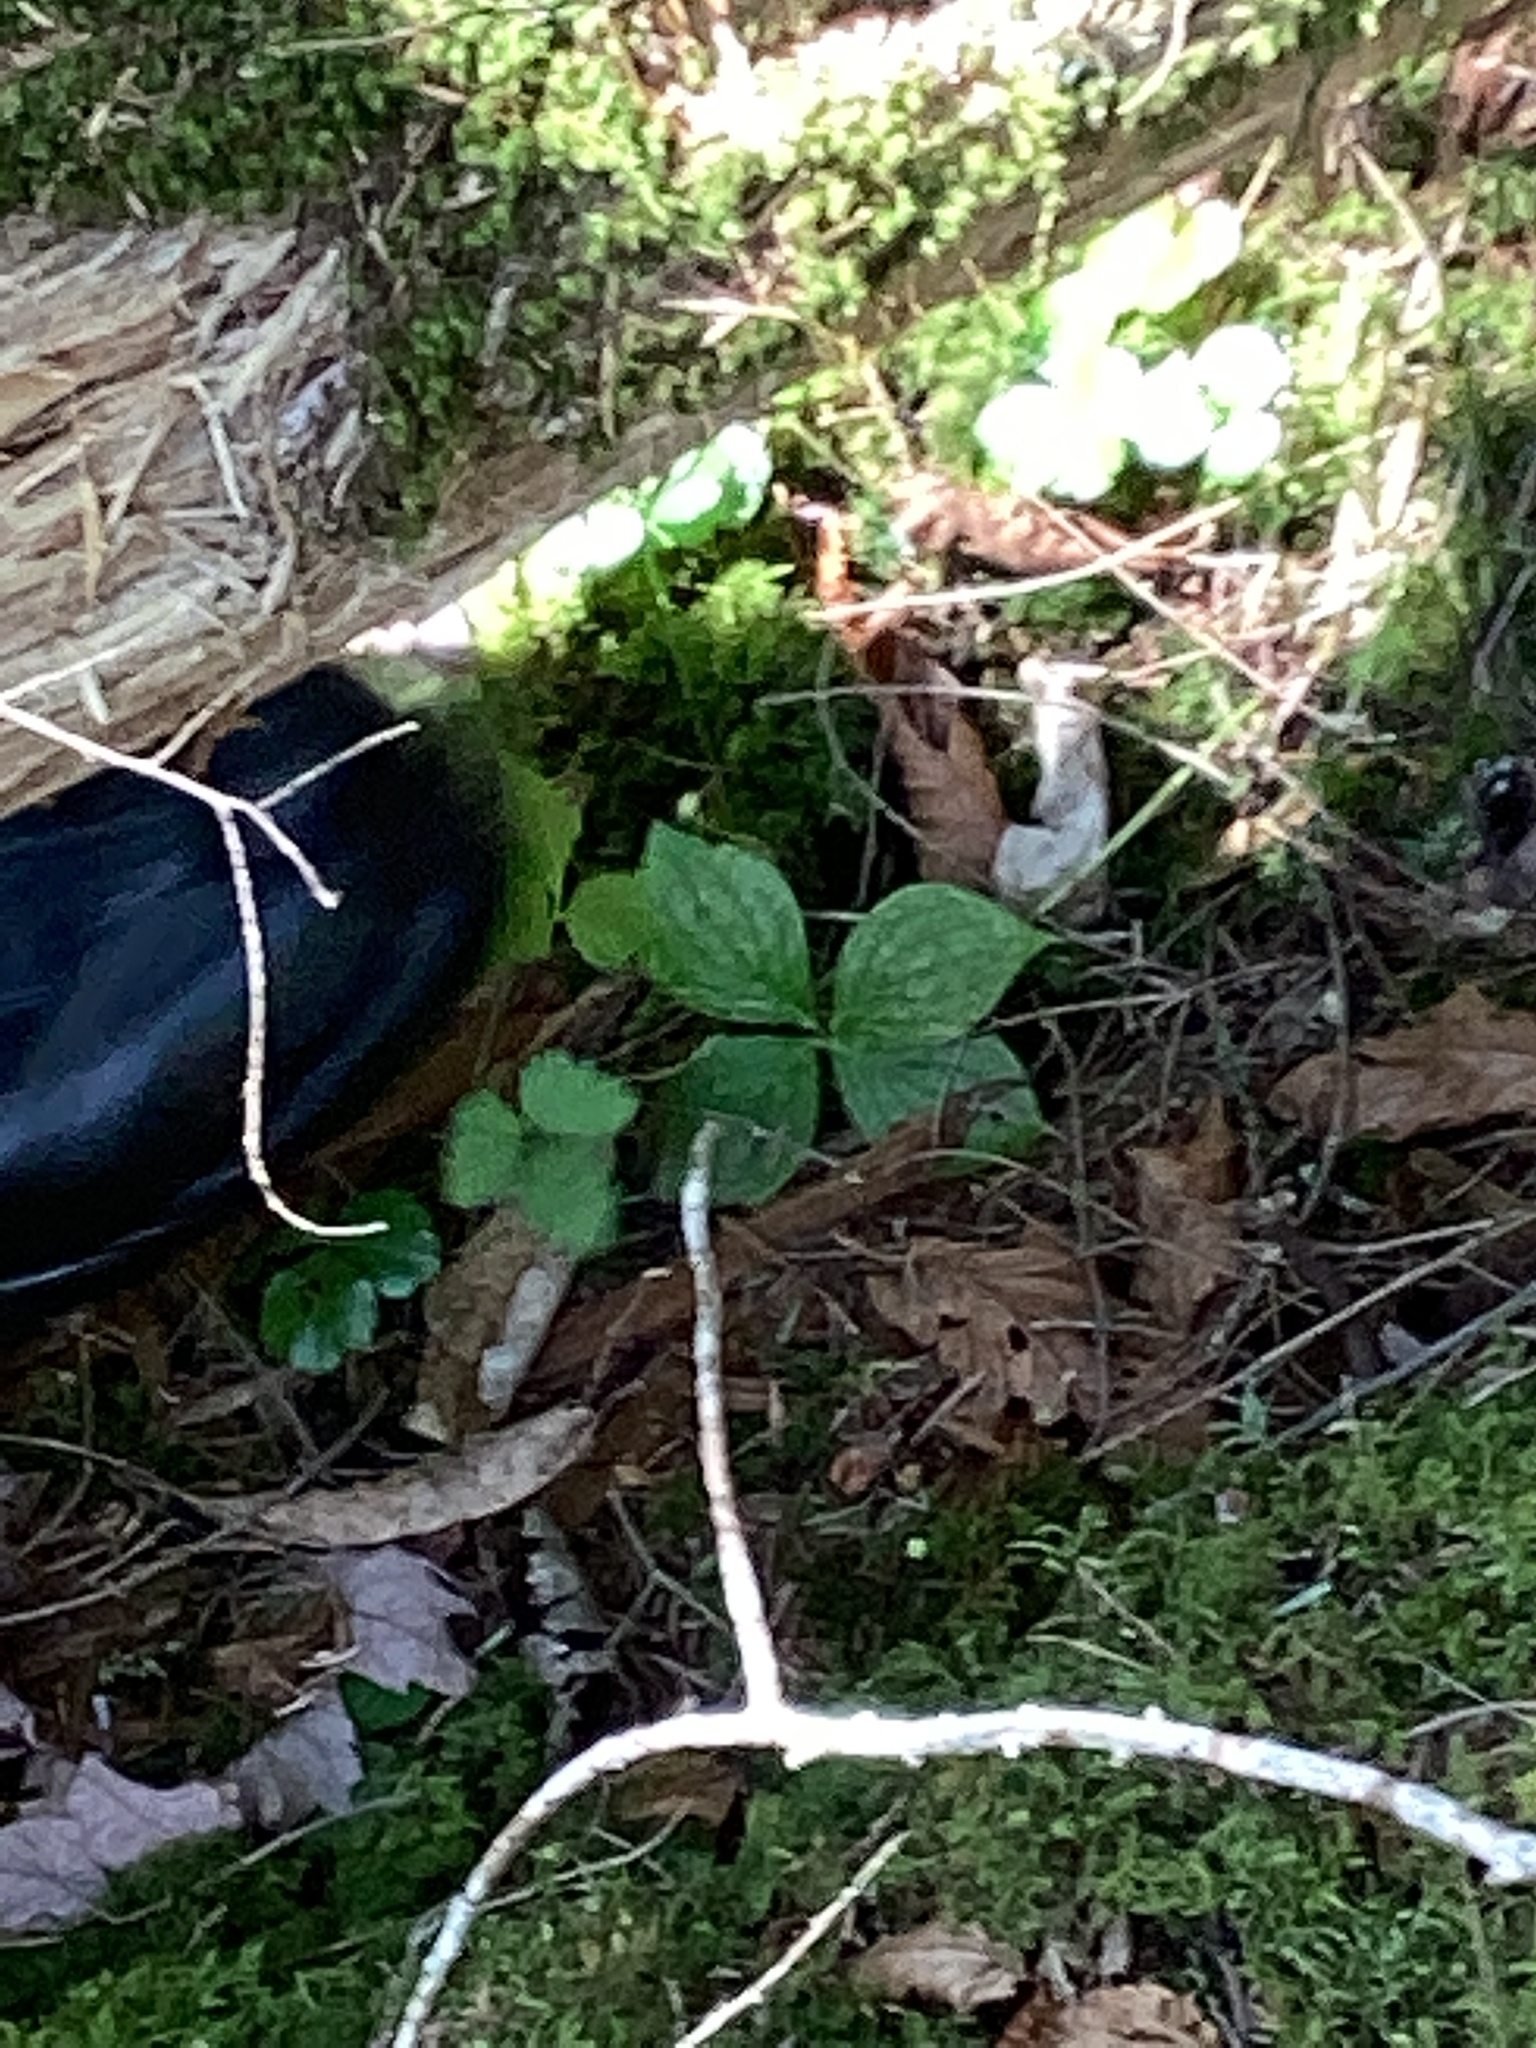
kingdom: Plantae
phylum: Tracheophyta
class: Magnoliopsida
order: Cornales
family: Cornaceae
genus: Cornus
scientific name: Cornus canadensis
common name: Creeping dogwood
